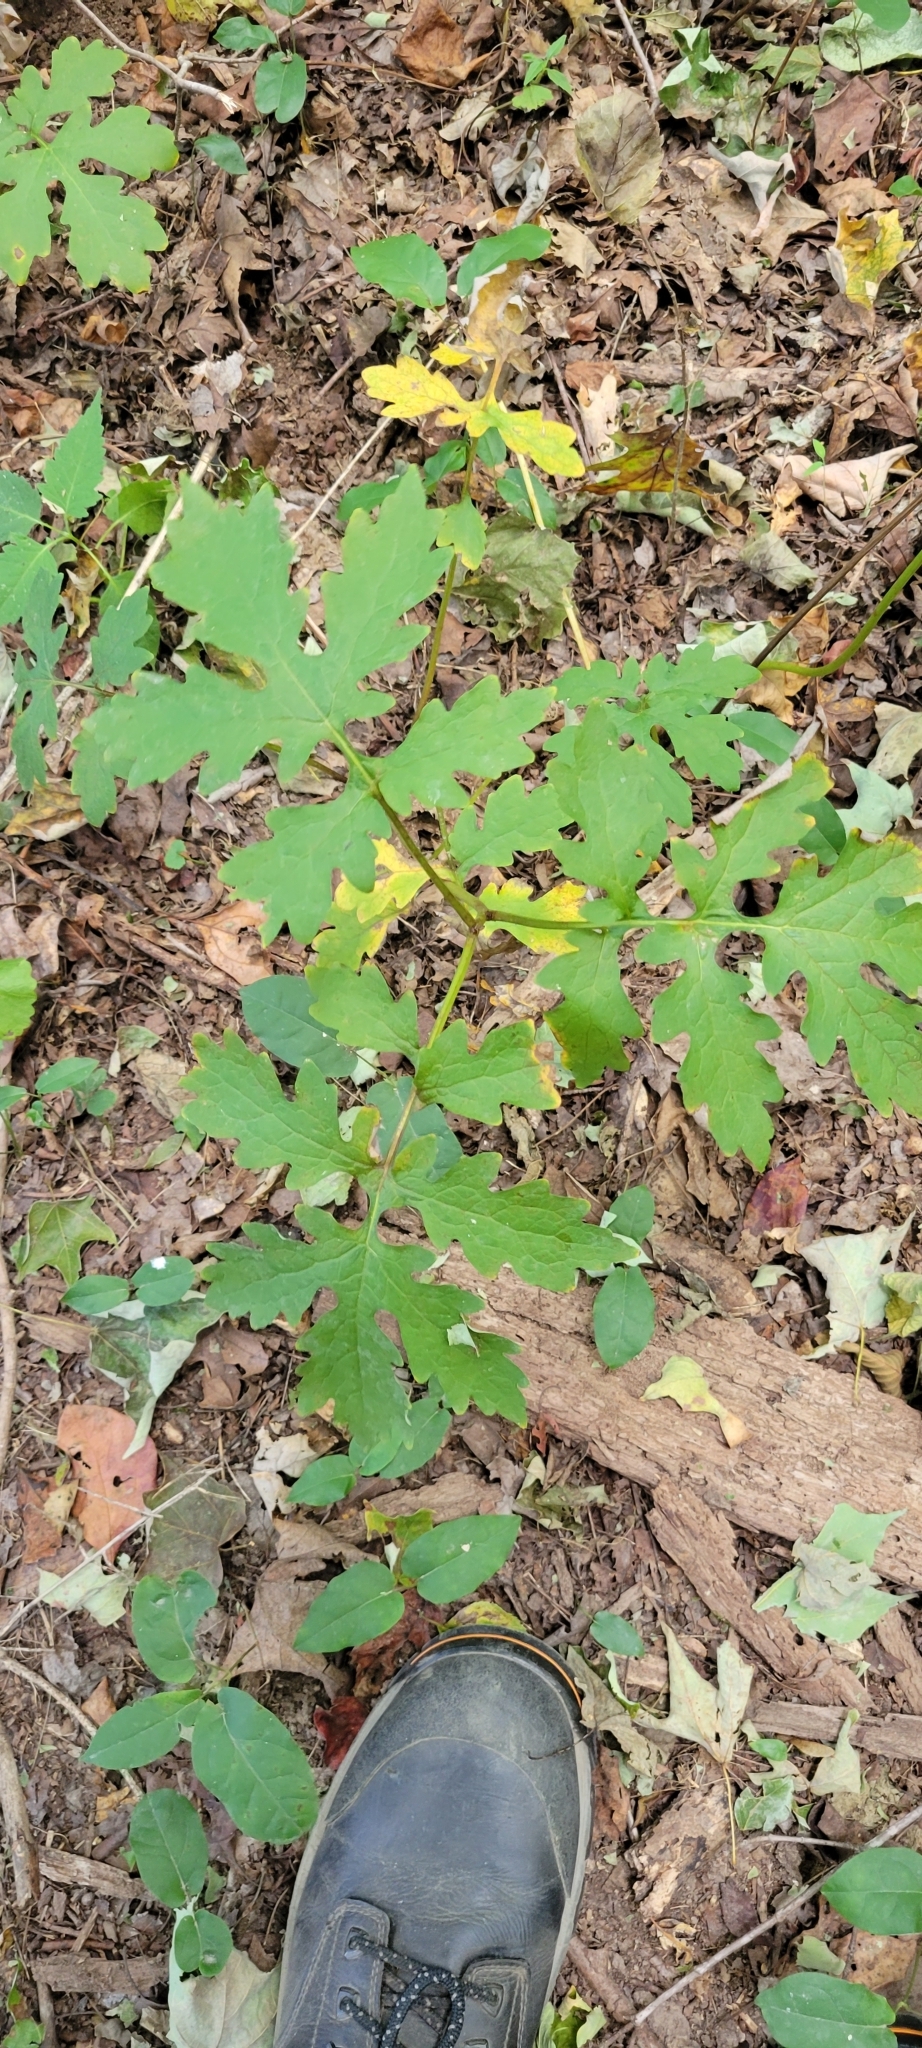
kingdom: Plantae
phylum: Tracheophyta
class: Magnoliopsida
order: Ranunculales
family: Papaveraceae
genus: Stylophorum
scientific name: Stylophorum diphyllum
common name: Celandine poppy
